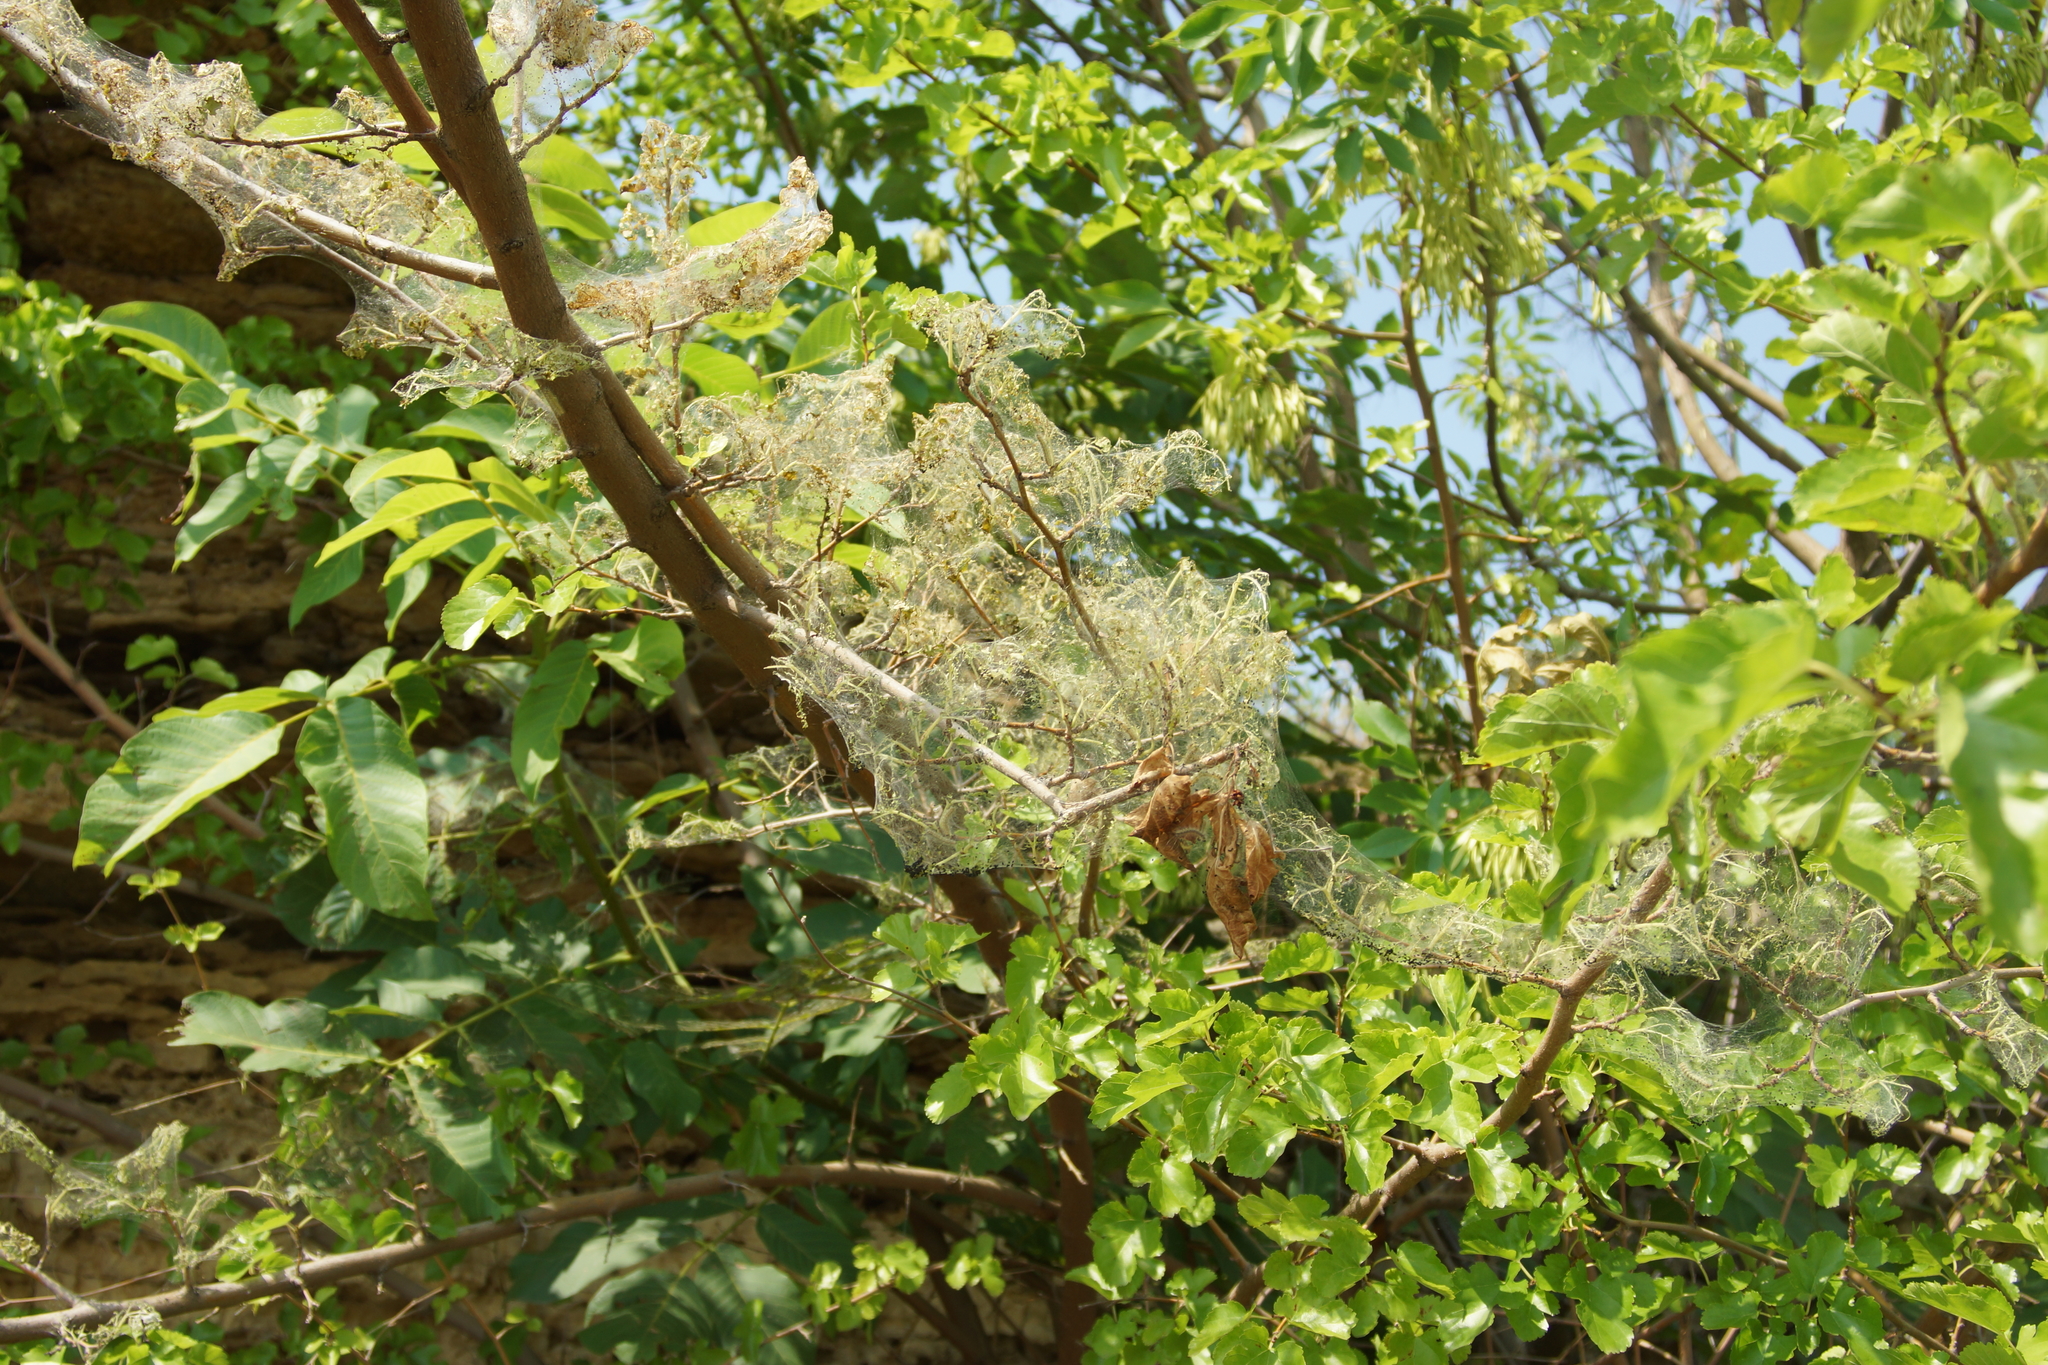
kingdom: Animalia
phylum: Arthropoda
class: Insecta
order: Lepidoptera
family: Erebidae
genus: Hyphantria
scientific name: Hyphantria cunea
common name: American white moth
